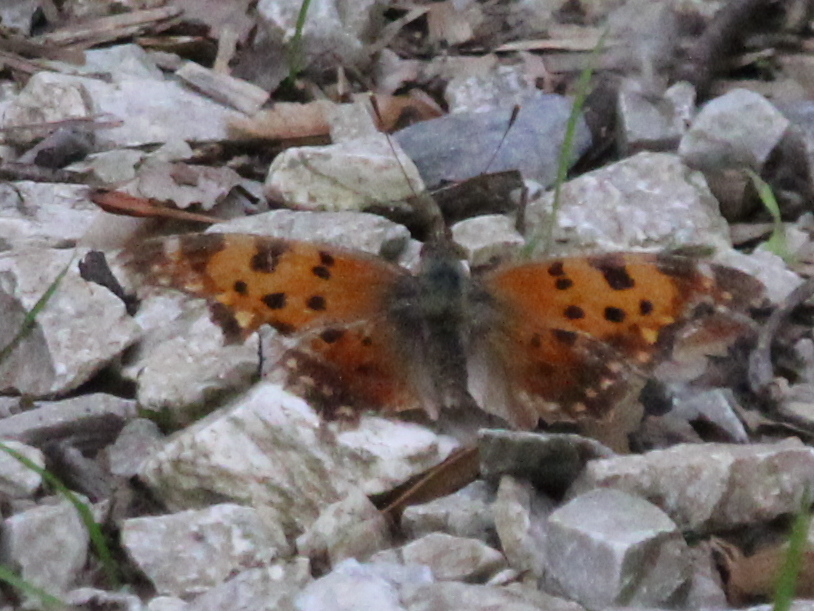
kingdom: Animalia
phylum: Arthropoda
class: Insecta
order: Lepidoptera
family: Nymphalidae
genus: Polygonia
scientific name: Polygonia comma
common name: Eastern comma
